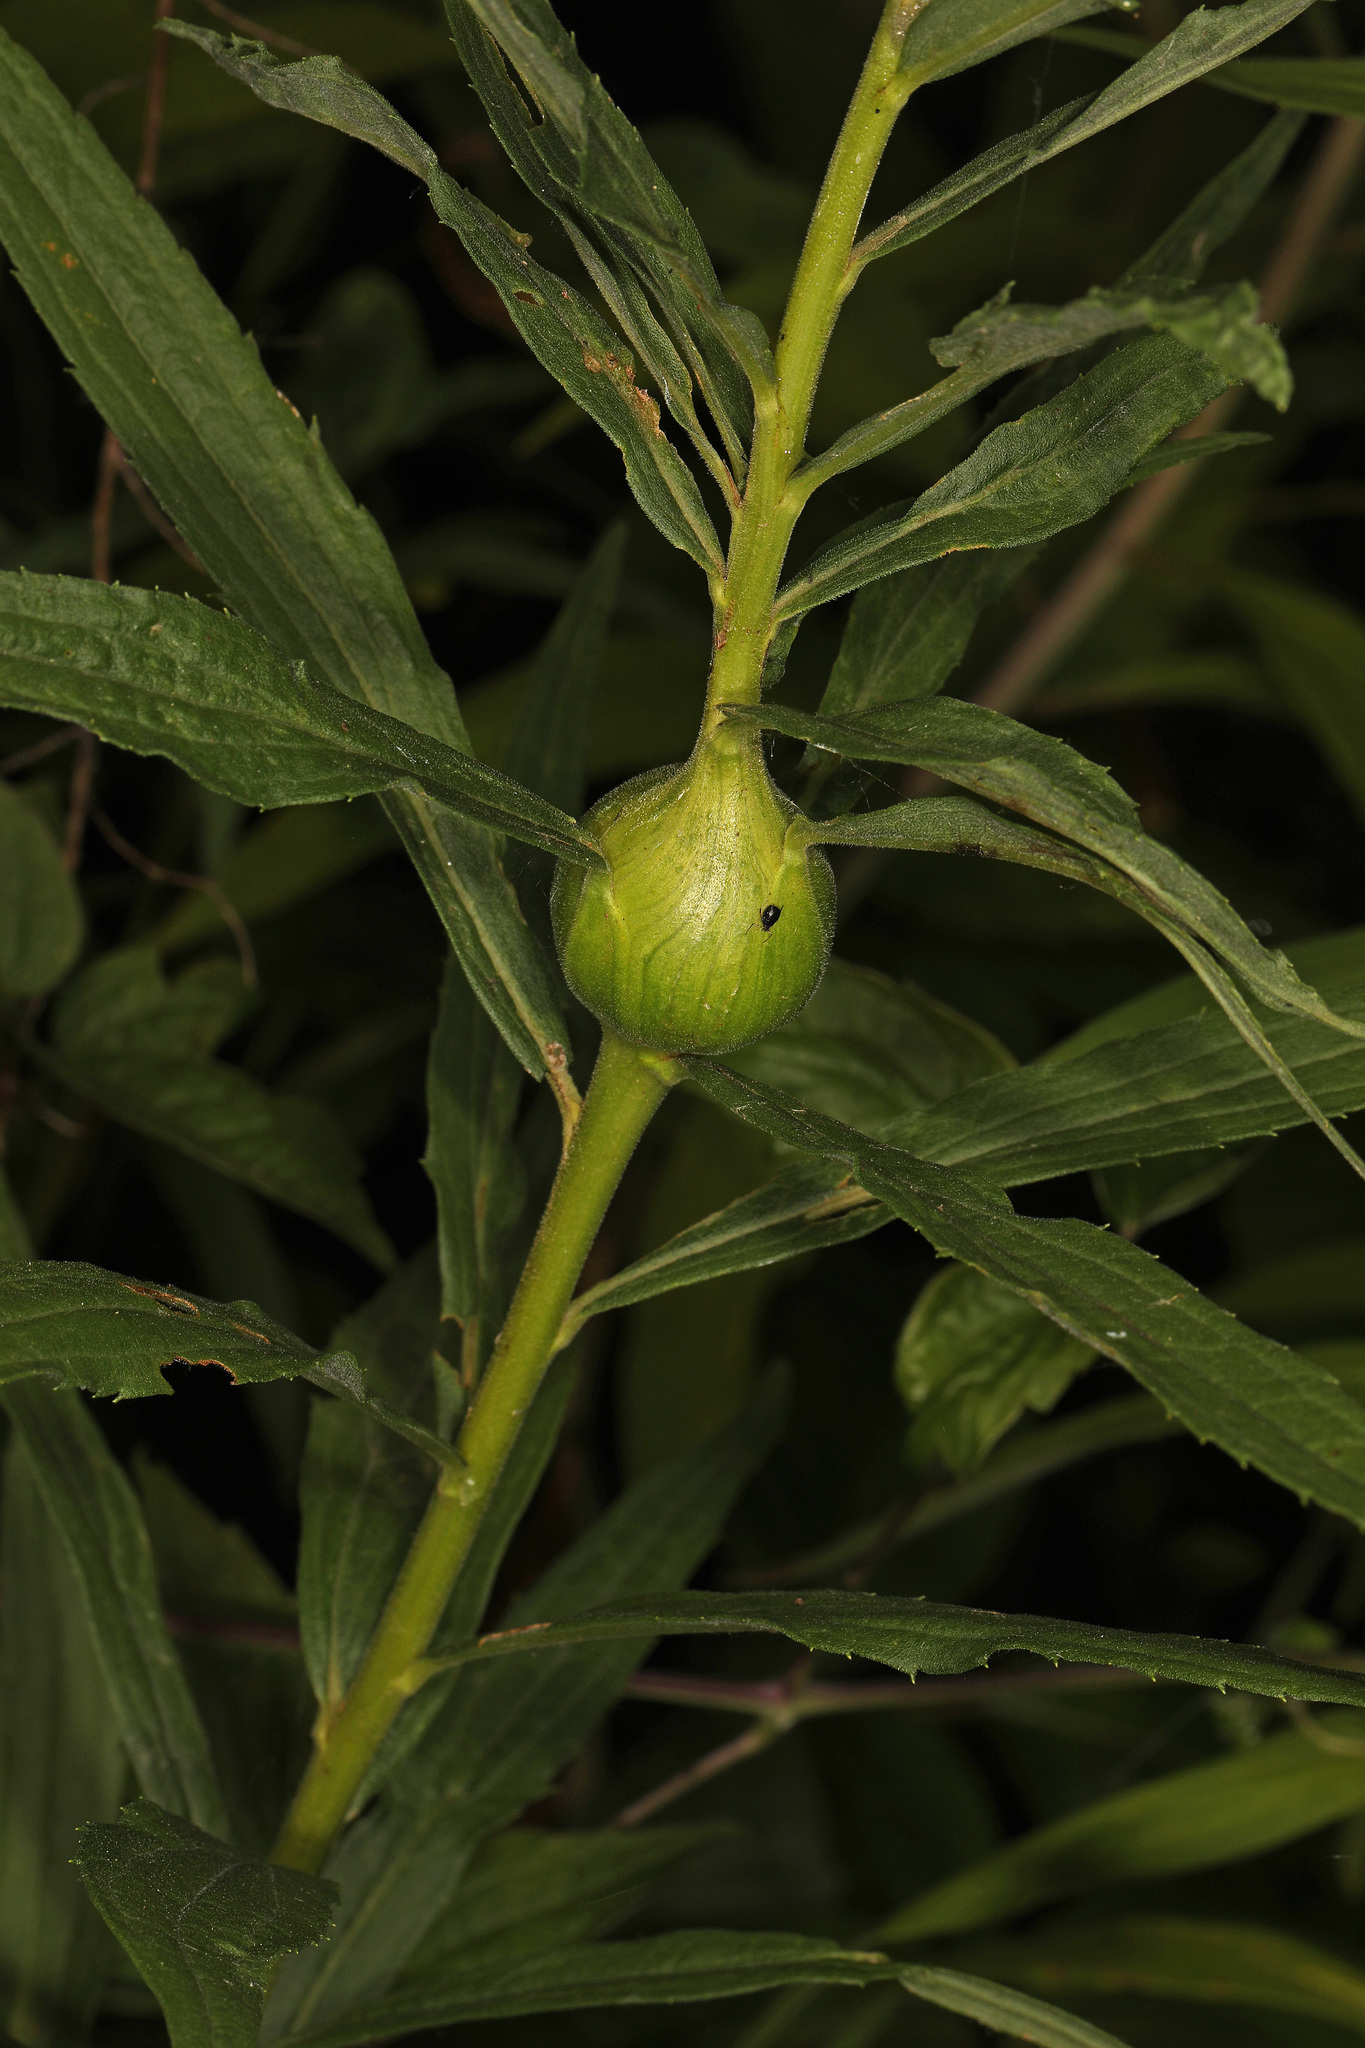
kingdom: Animalia
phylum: Arthropoda
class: Insecta
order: Diptera
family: Tephritidae
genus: Eurosta
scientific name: Eurosta solidaginis
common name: Goldenrod gall fly
